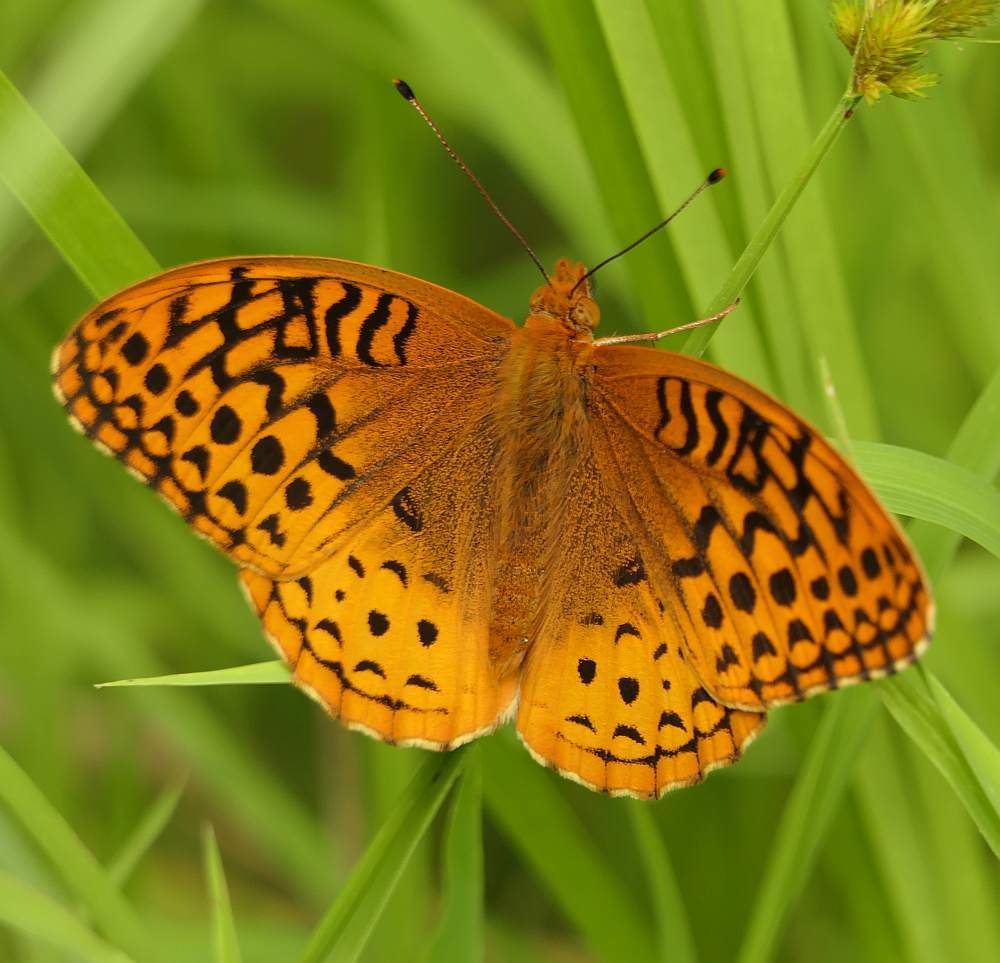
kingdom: Animalia
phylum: Arthropoda
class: Insecta
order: Lepidoptera
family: Nymphalidae
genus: Speyeria
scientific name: Speyeria cybele
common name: Great spangled fritillary
